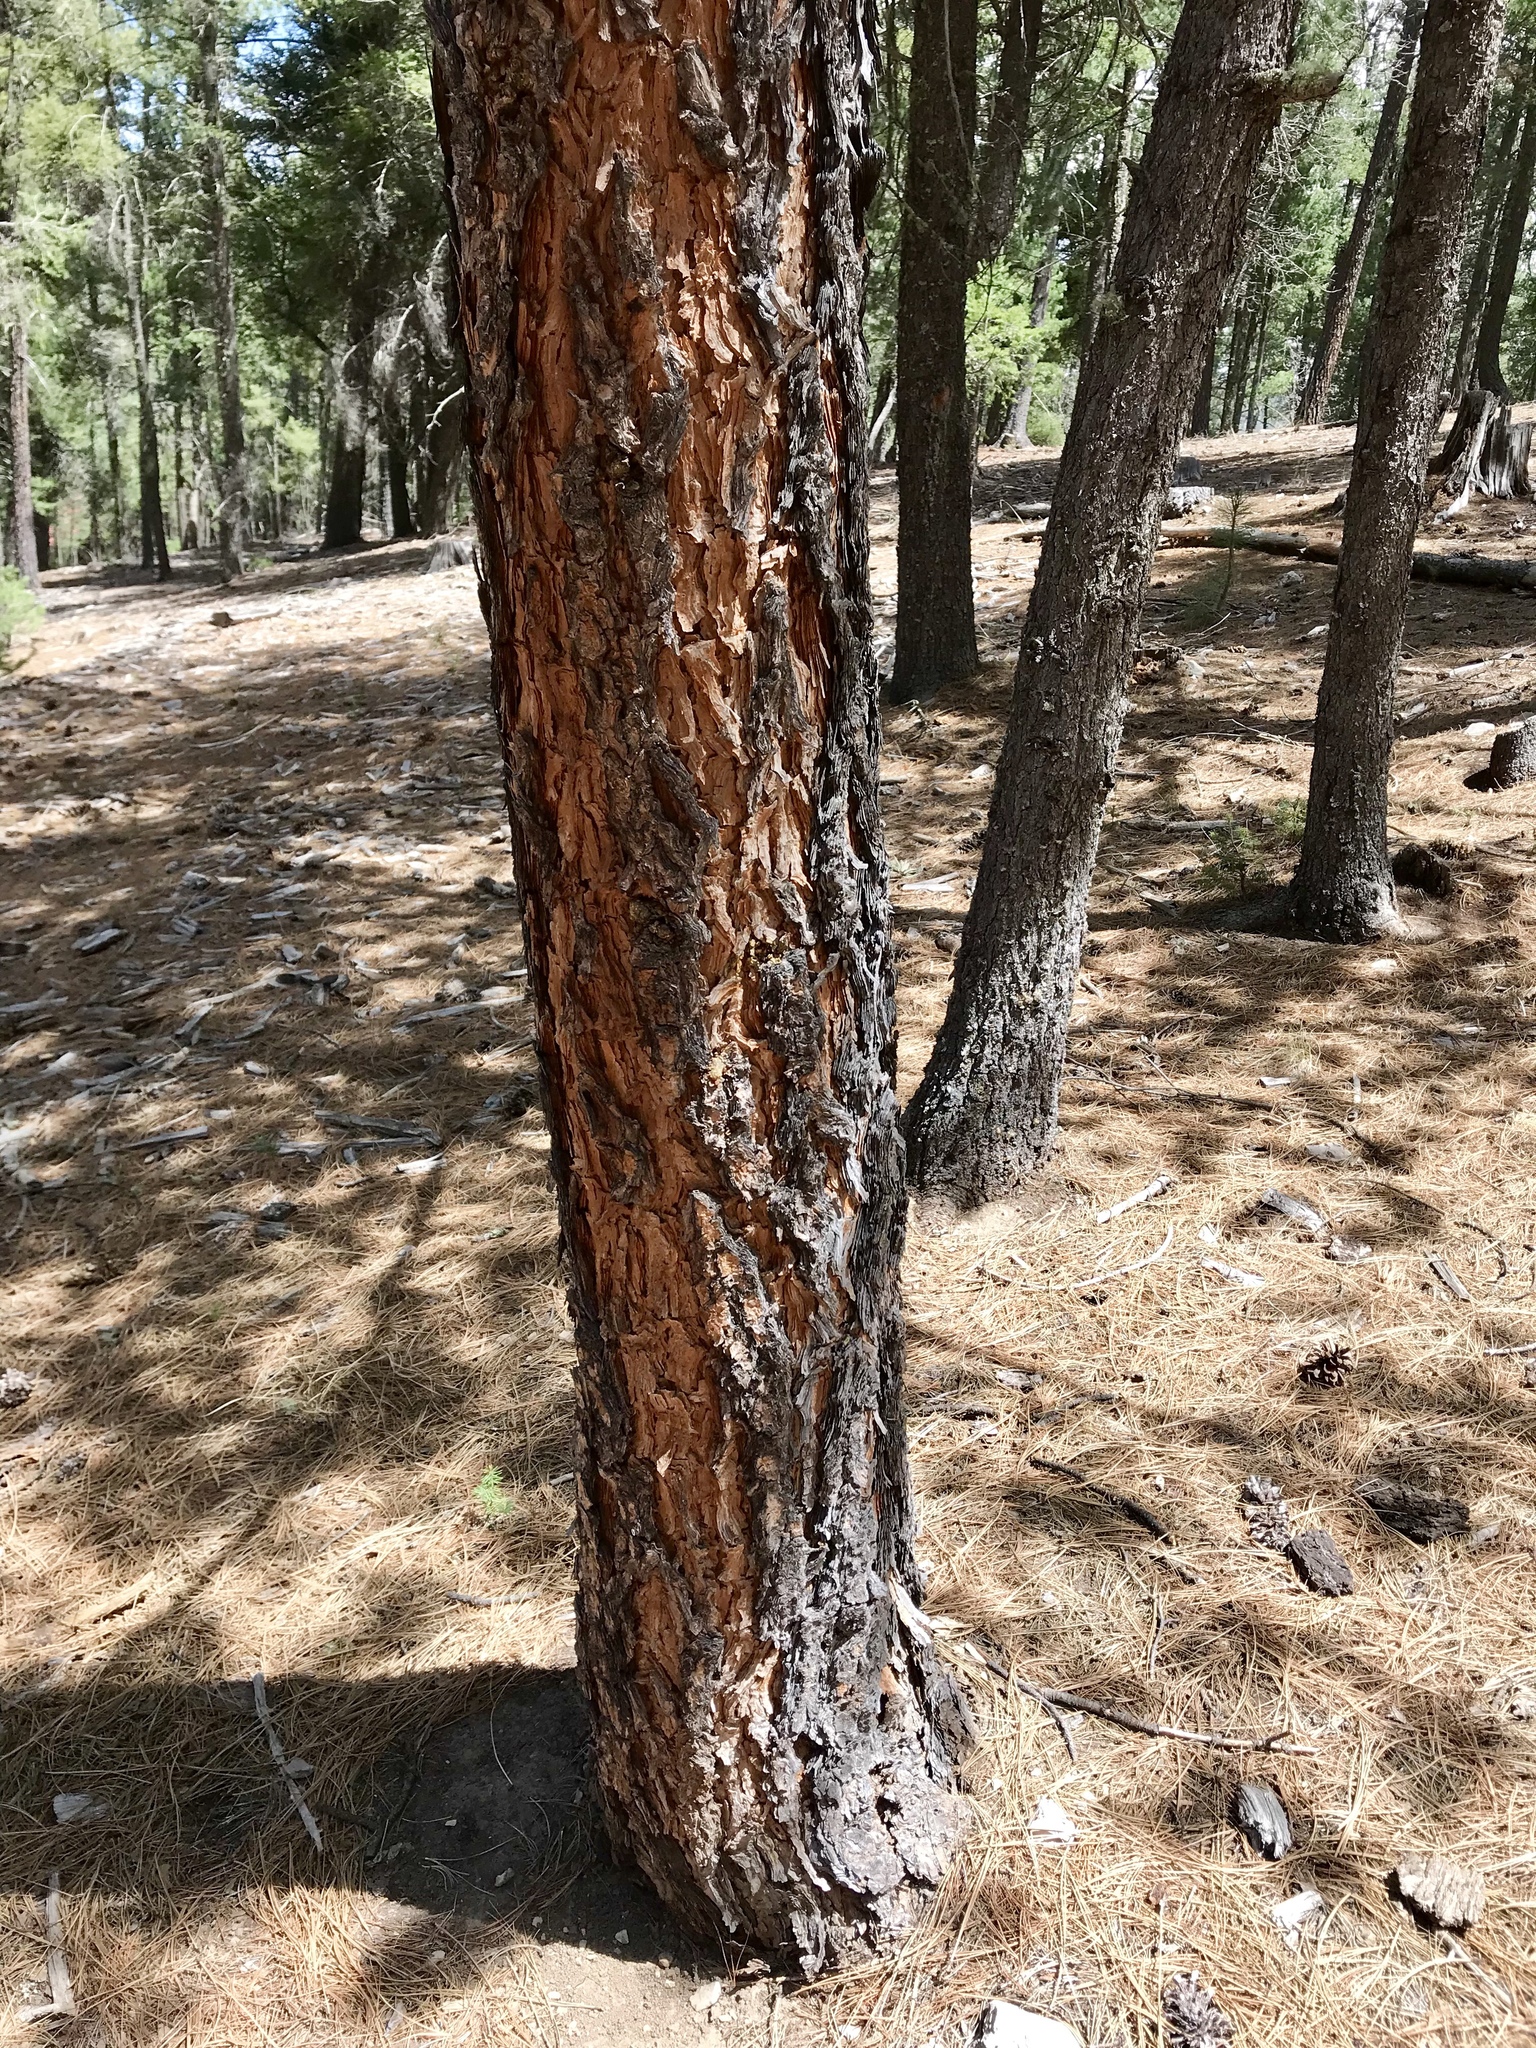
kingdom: Plantae
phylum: Tracheophyta
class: Pinopsida
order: Pinales
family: Pinaceae
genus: Pinus
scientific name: Pinus ponderosa
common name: Western yellow-pine
